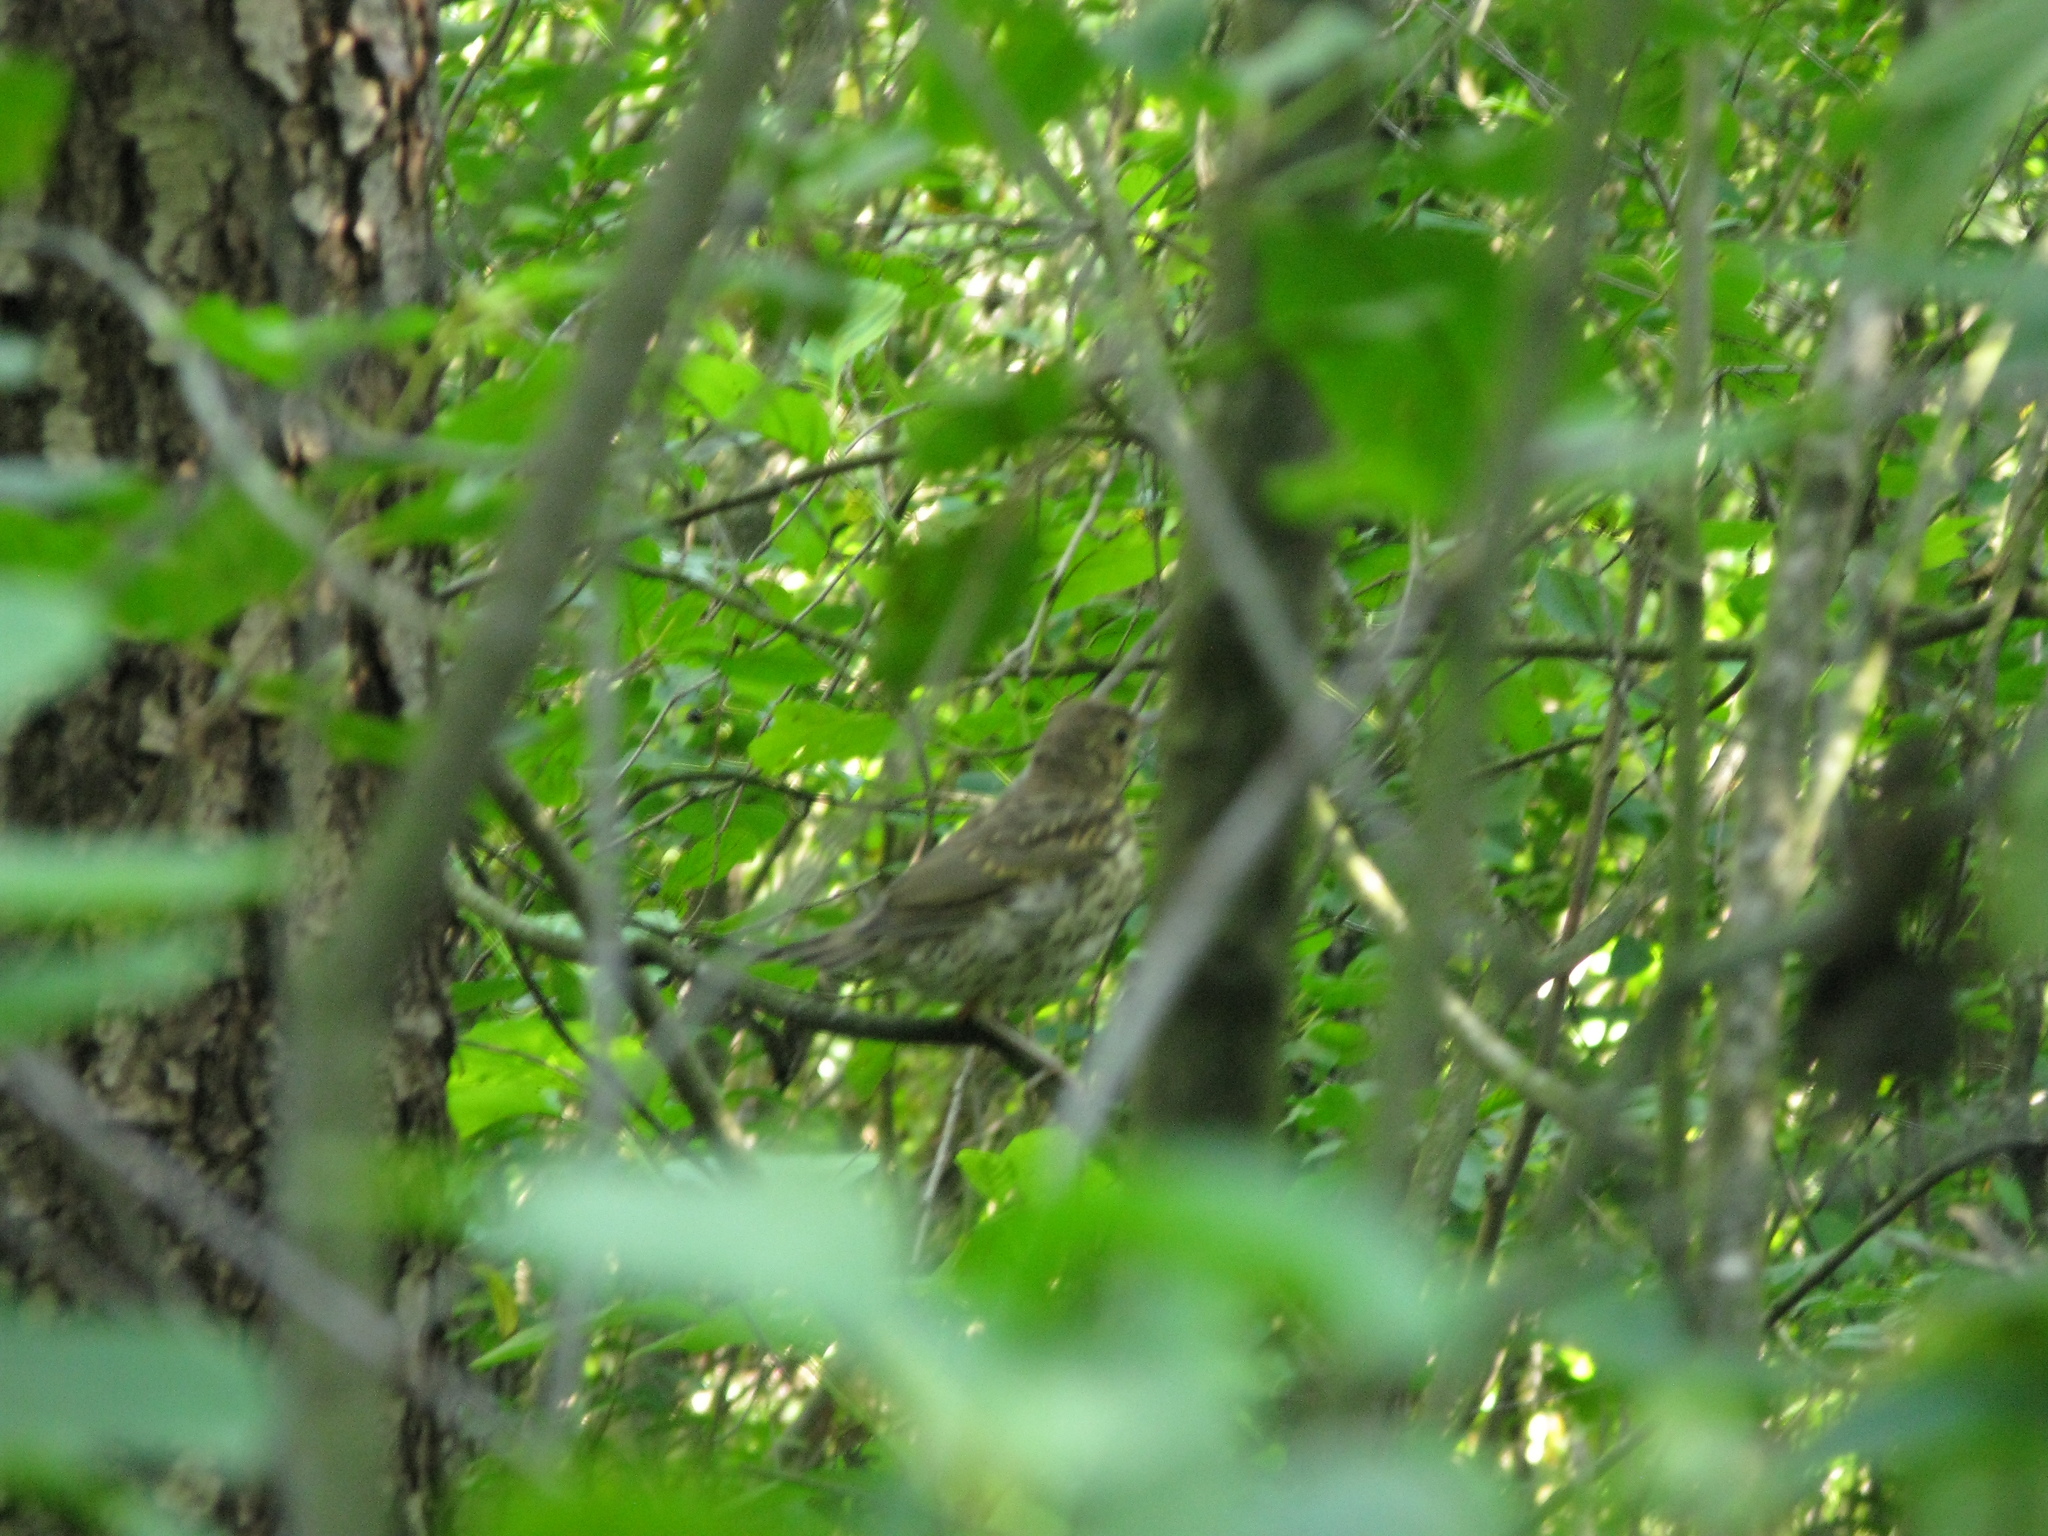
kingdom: Animalia
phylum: Chordata
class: Aves
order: Passeriformes
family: Turdidae
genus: Turdus
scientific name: Turdus philomelos
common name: Song thrush
